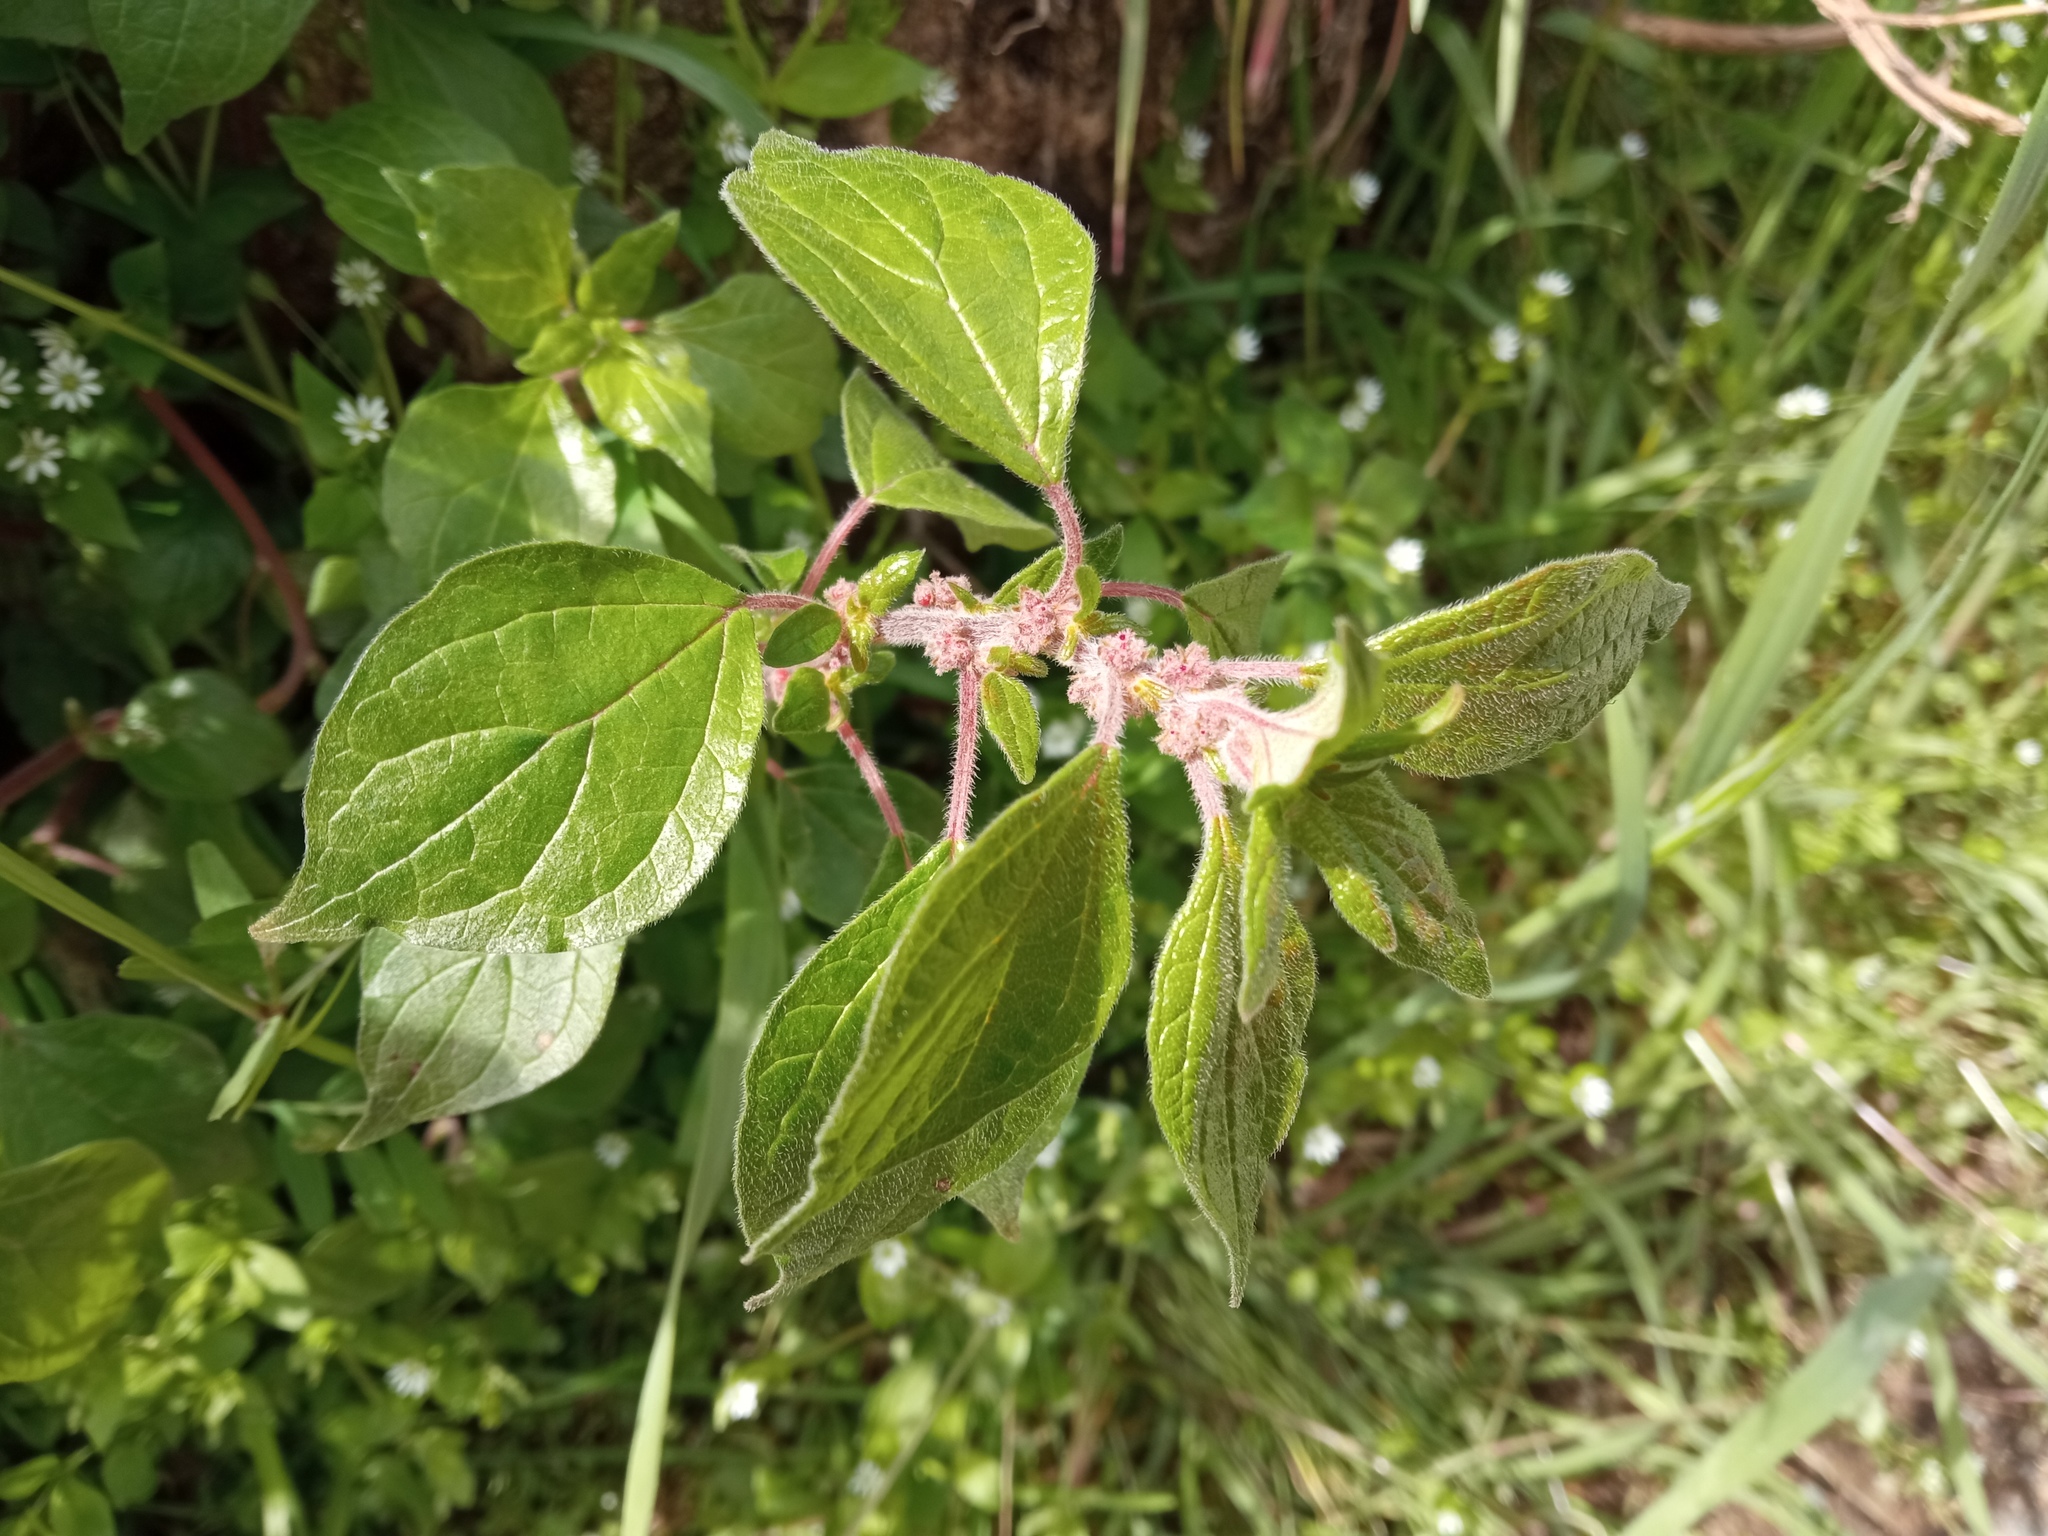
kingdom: Plantae
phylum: Tracheophyta
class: Magnoliopsida
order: Rosales
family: Urticaceae
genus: Parietaria
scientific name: Parietaria judaica
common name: Pellitory-of-the-wall
